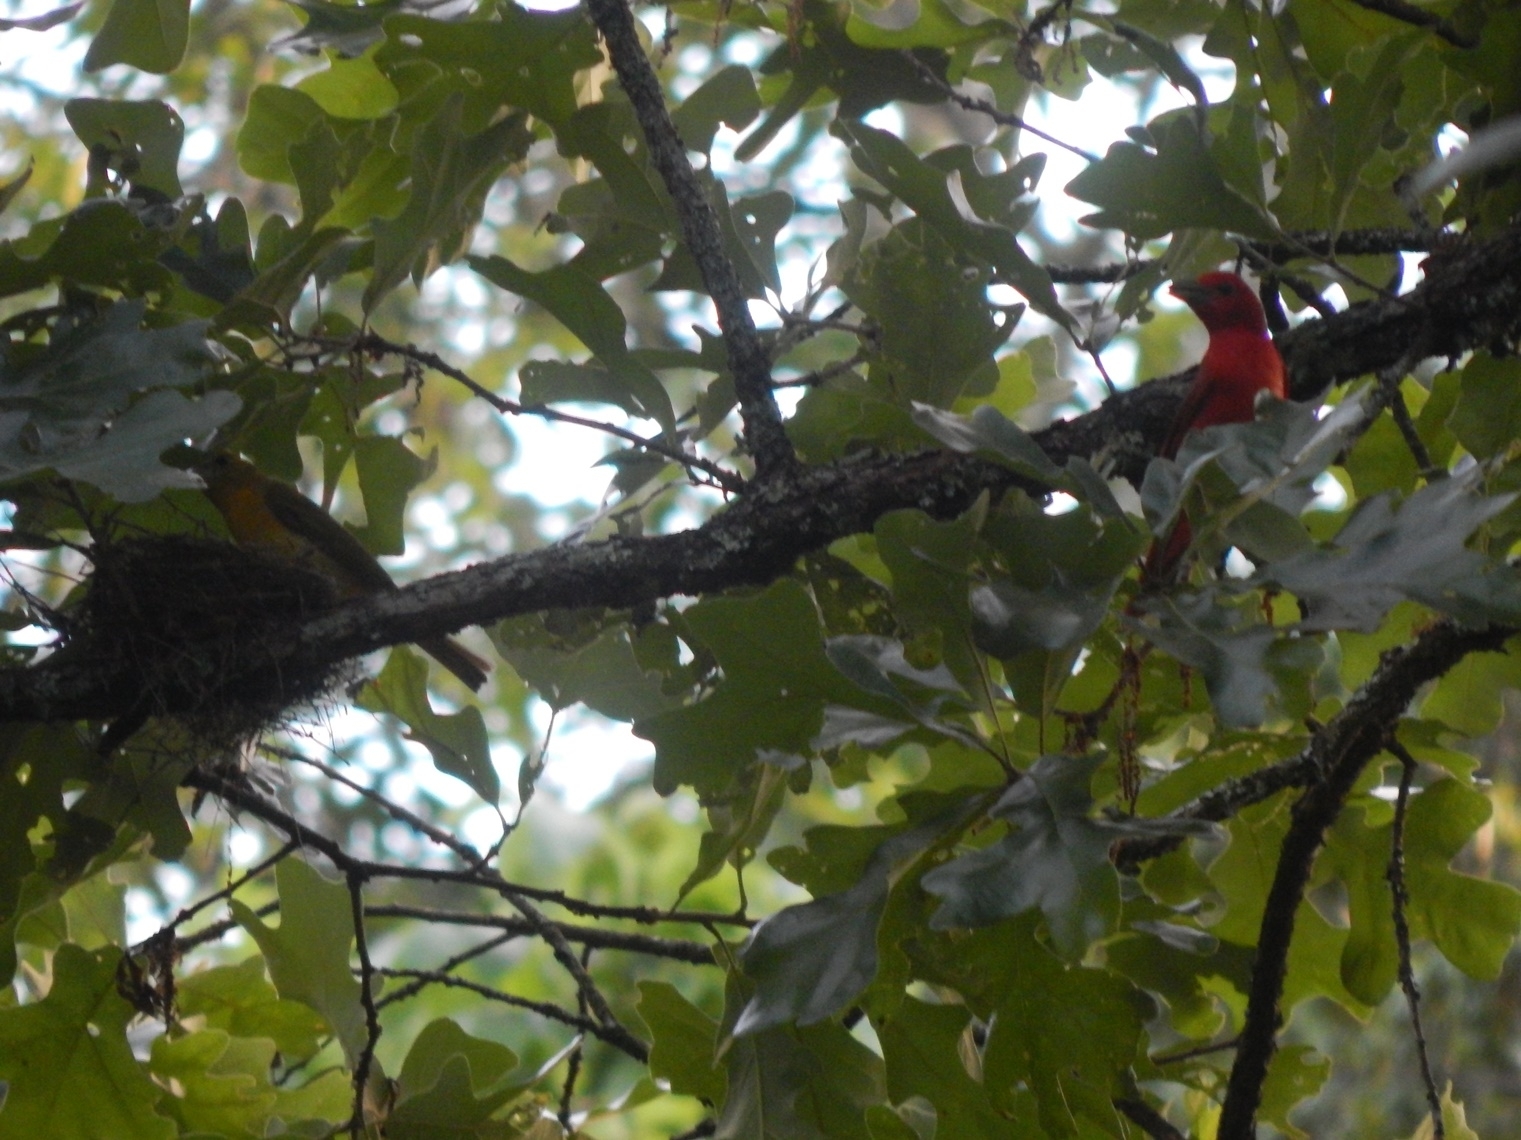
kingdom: Animalia
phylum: Chordata
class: Aves
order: Passeriformes
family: Cardinalidae
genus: Piranga
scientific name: Piranga rubra
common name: Summer tanager
